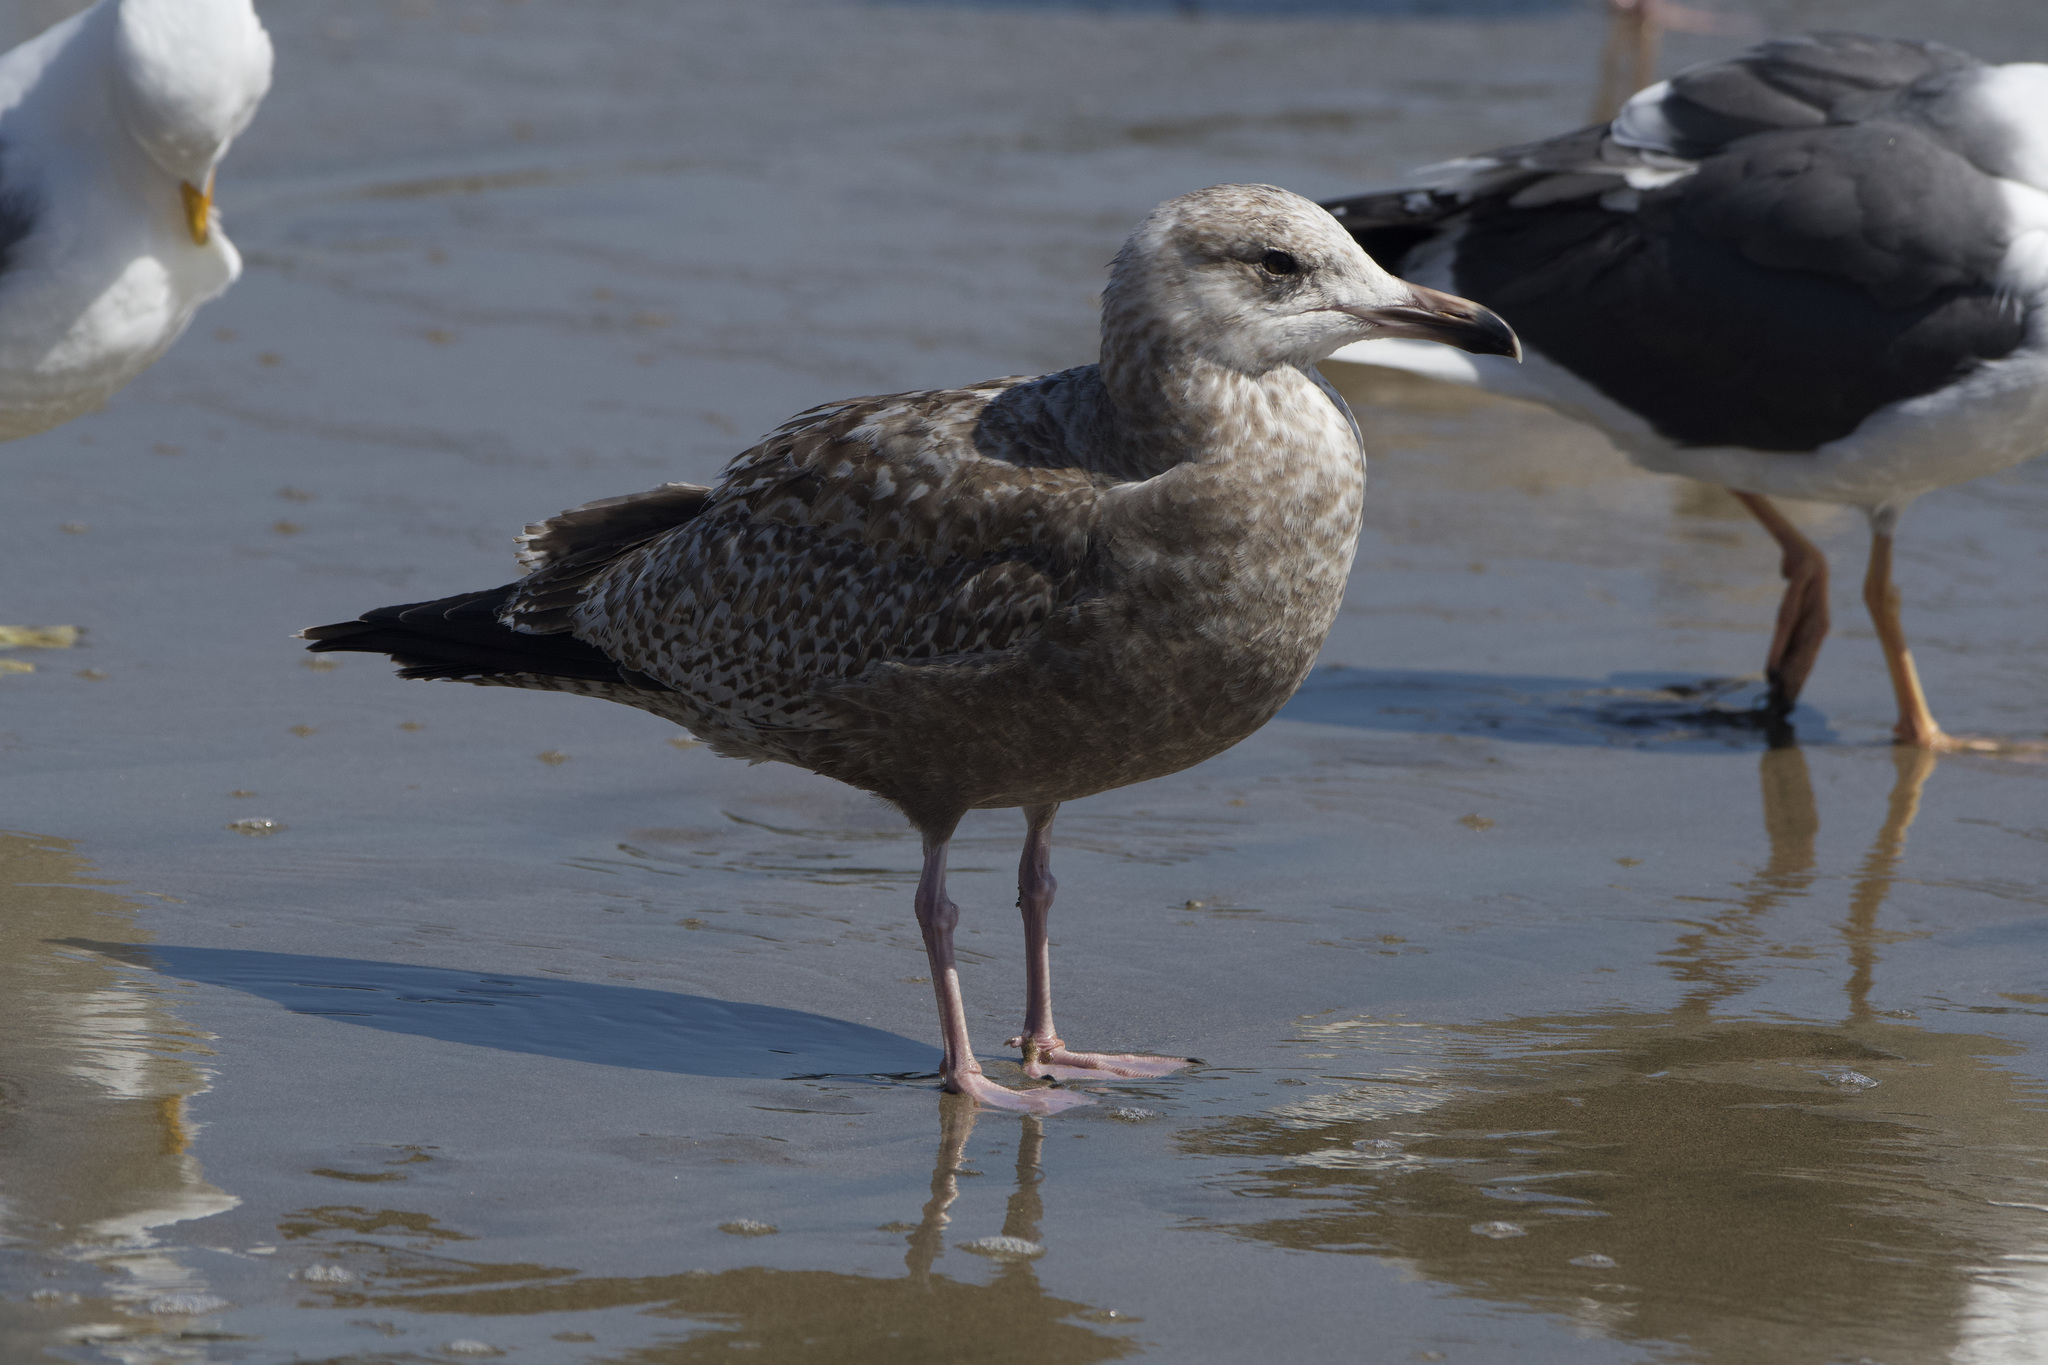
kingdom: Animalia
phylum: Chordata
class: Aves
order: Charadriiformes
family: Laridae
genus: Larus
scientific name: Larus smithsonianus
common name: American herring gull
